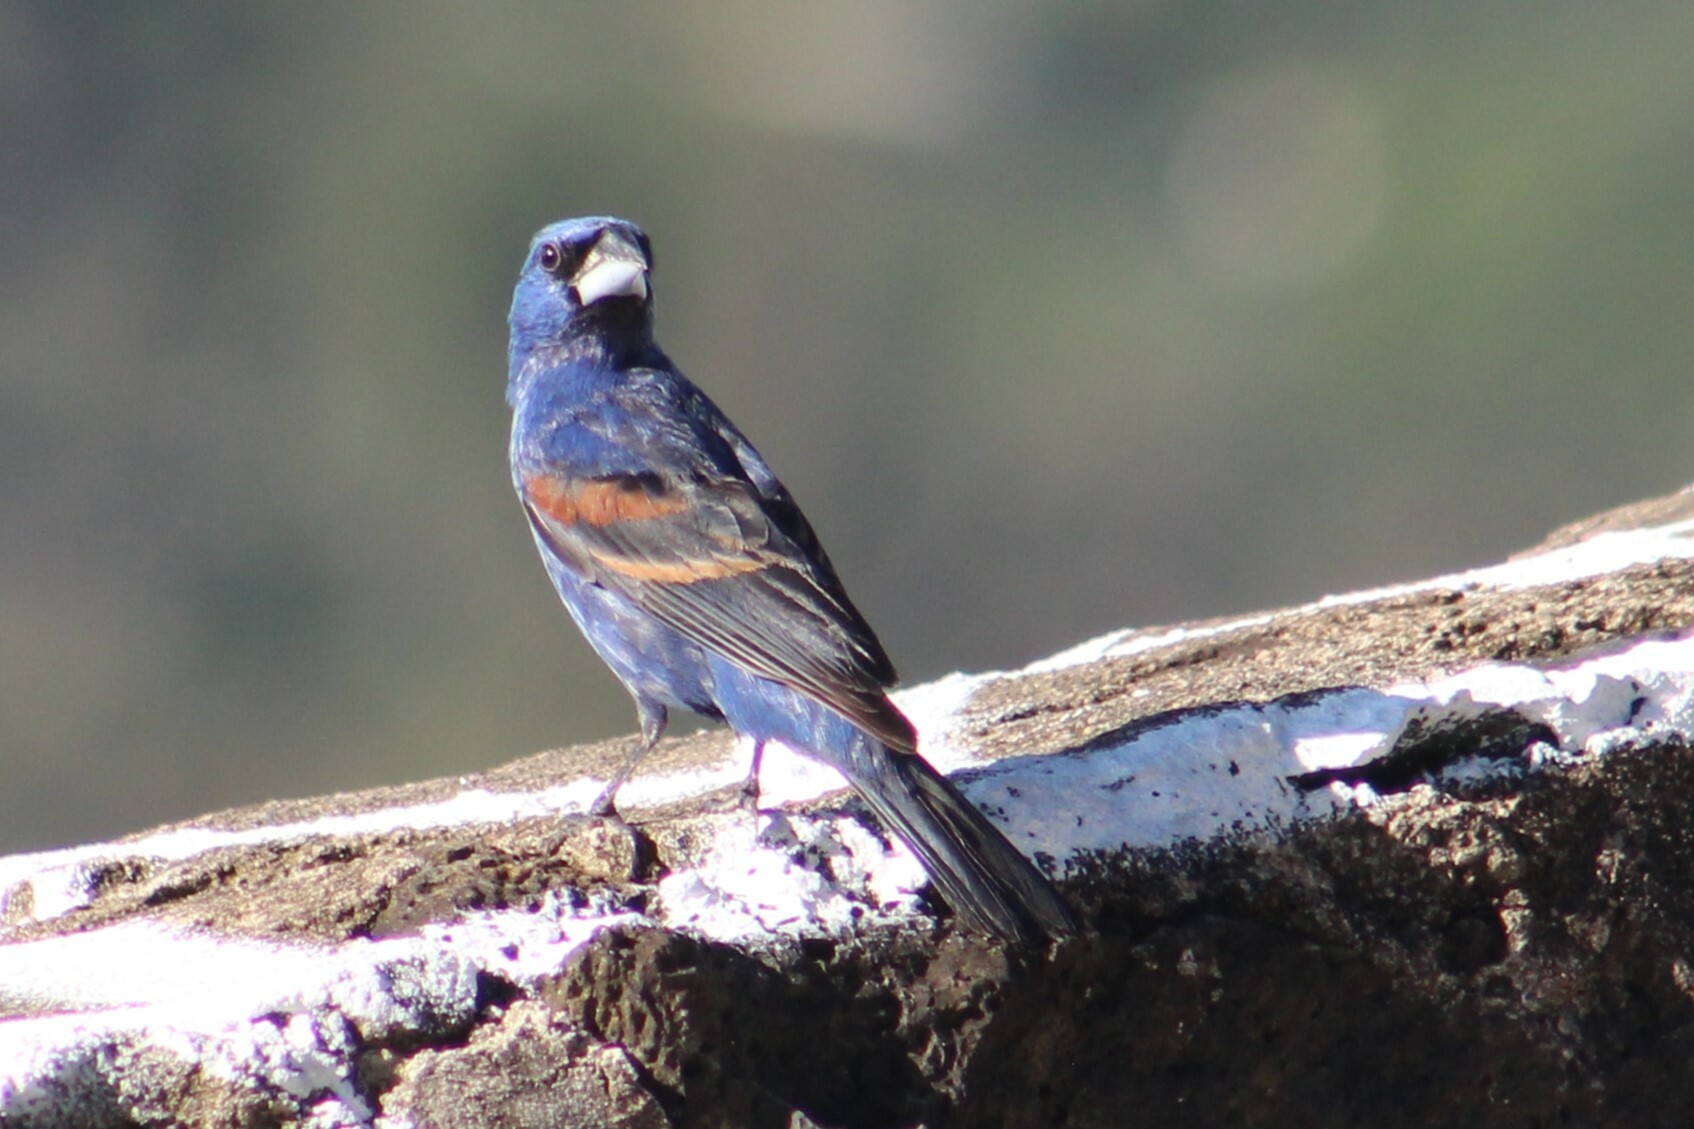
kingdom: Animalia
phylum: Chordata
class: Aves
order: Passeriformes
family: Cardinalidae
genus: Passerina
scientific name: Passerina caerulea
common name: Blue grosbeak
